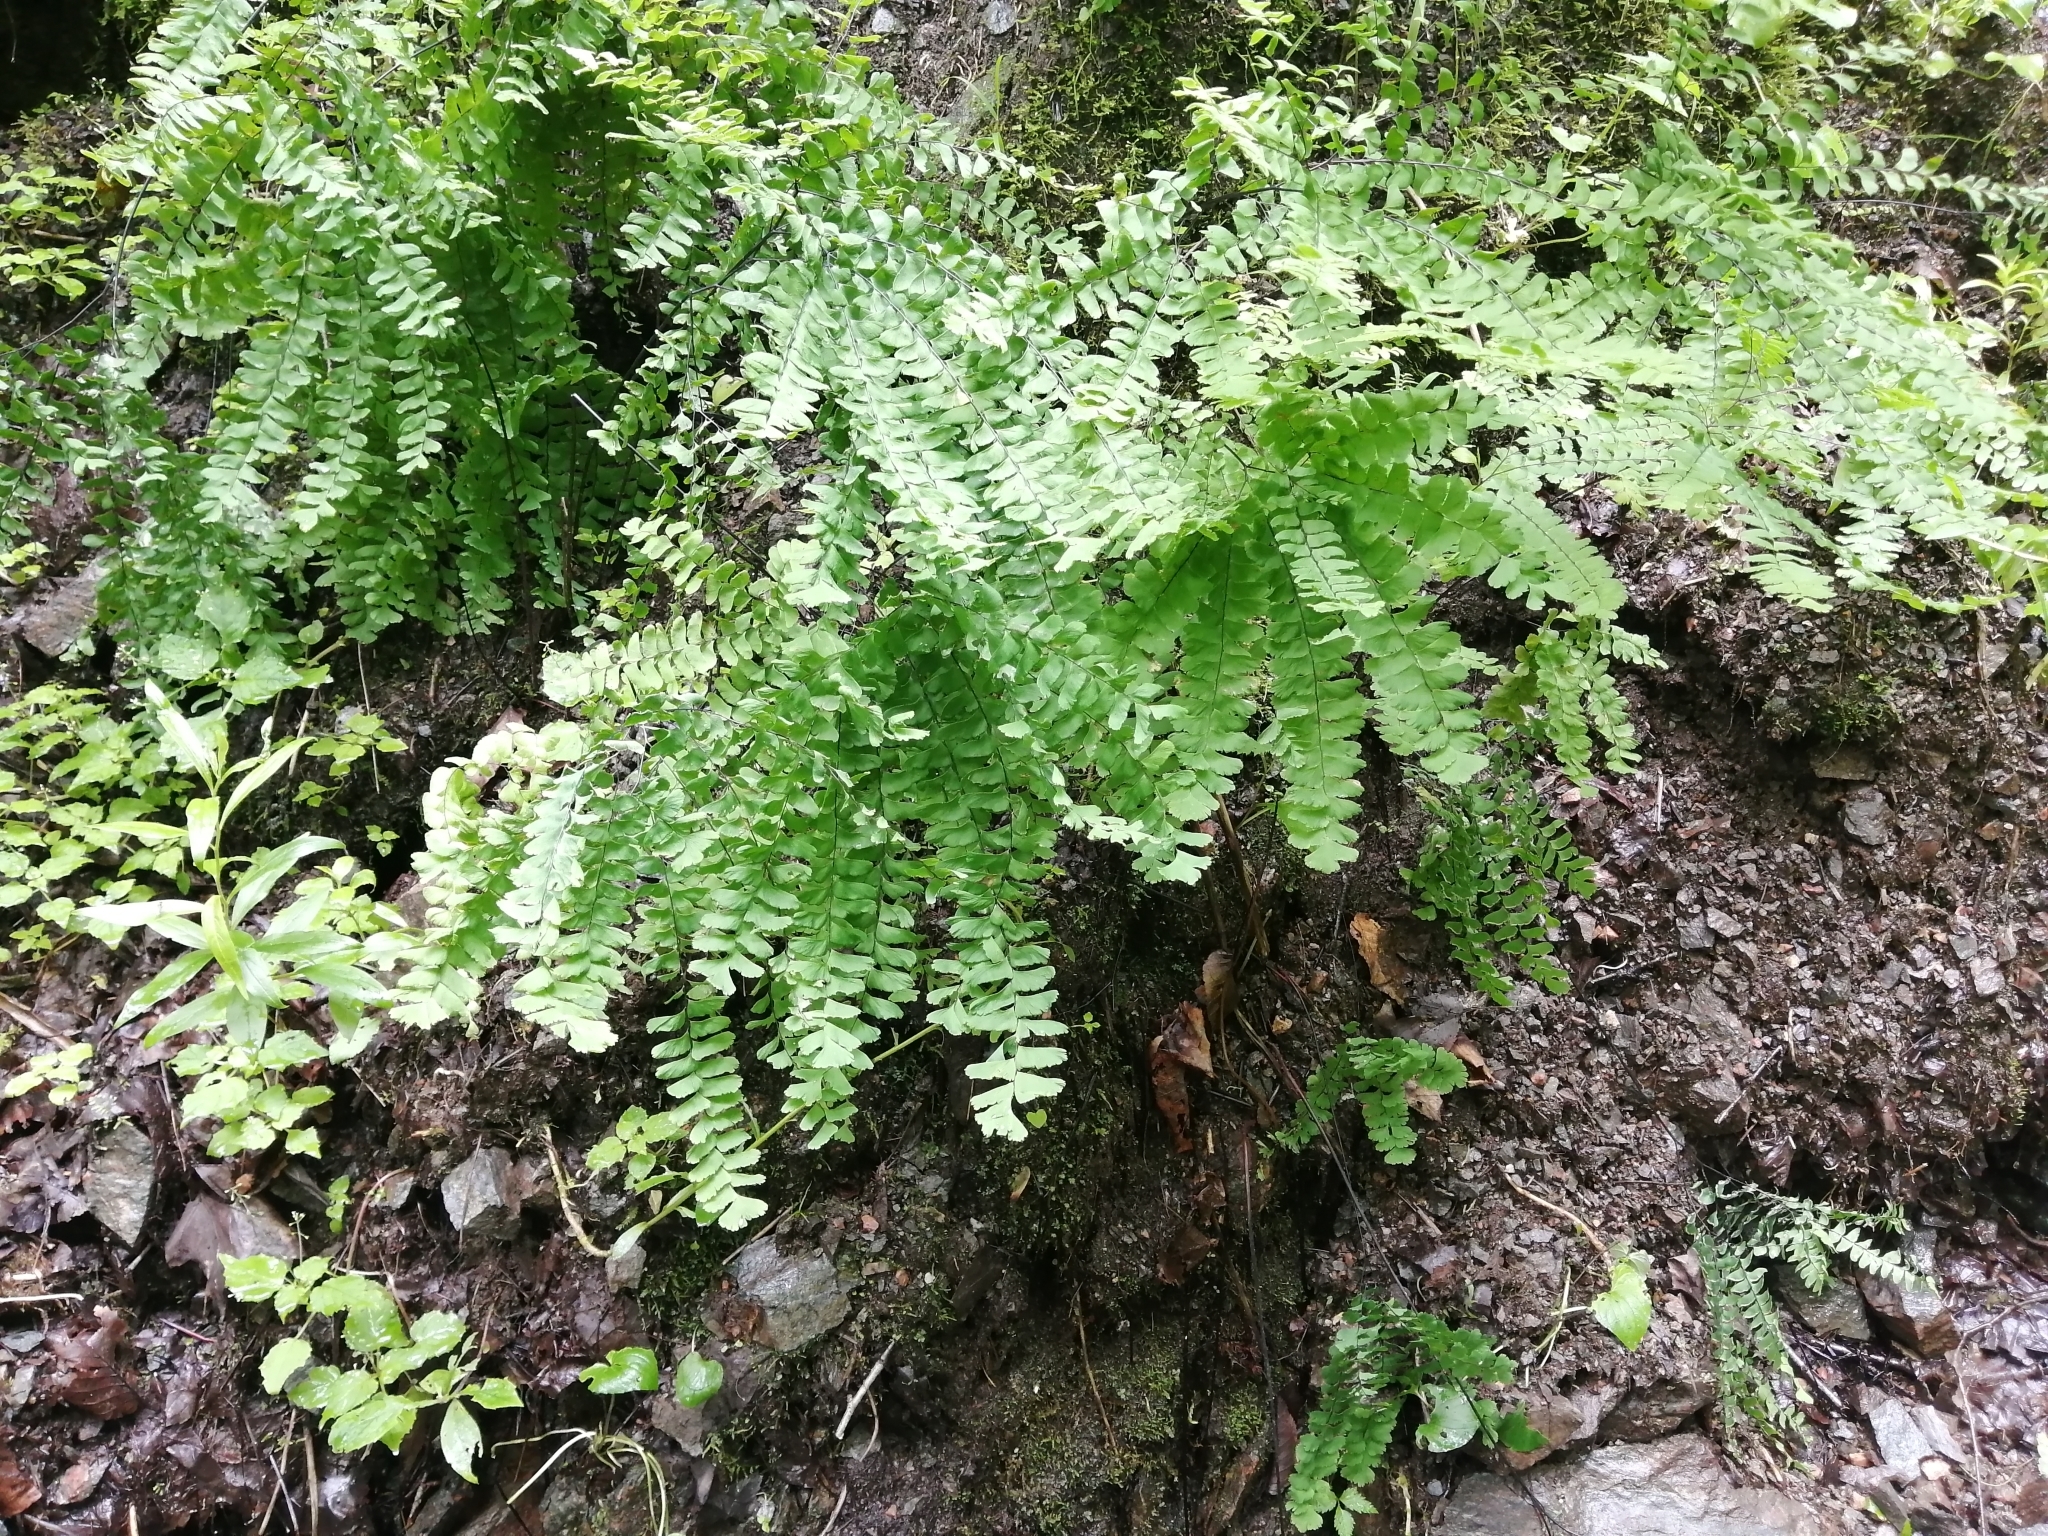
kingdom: Plantae
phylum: Tracheophyta
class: Polypodiopsida
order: Polypodiales
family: Pteridaceae
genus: Adiantum
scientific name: Adiantum pedatum
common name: Five-finger fern
